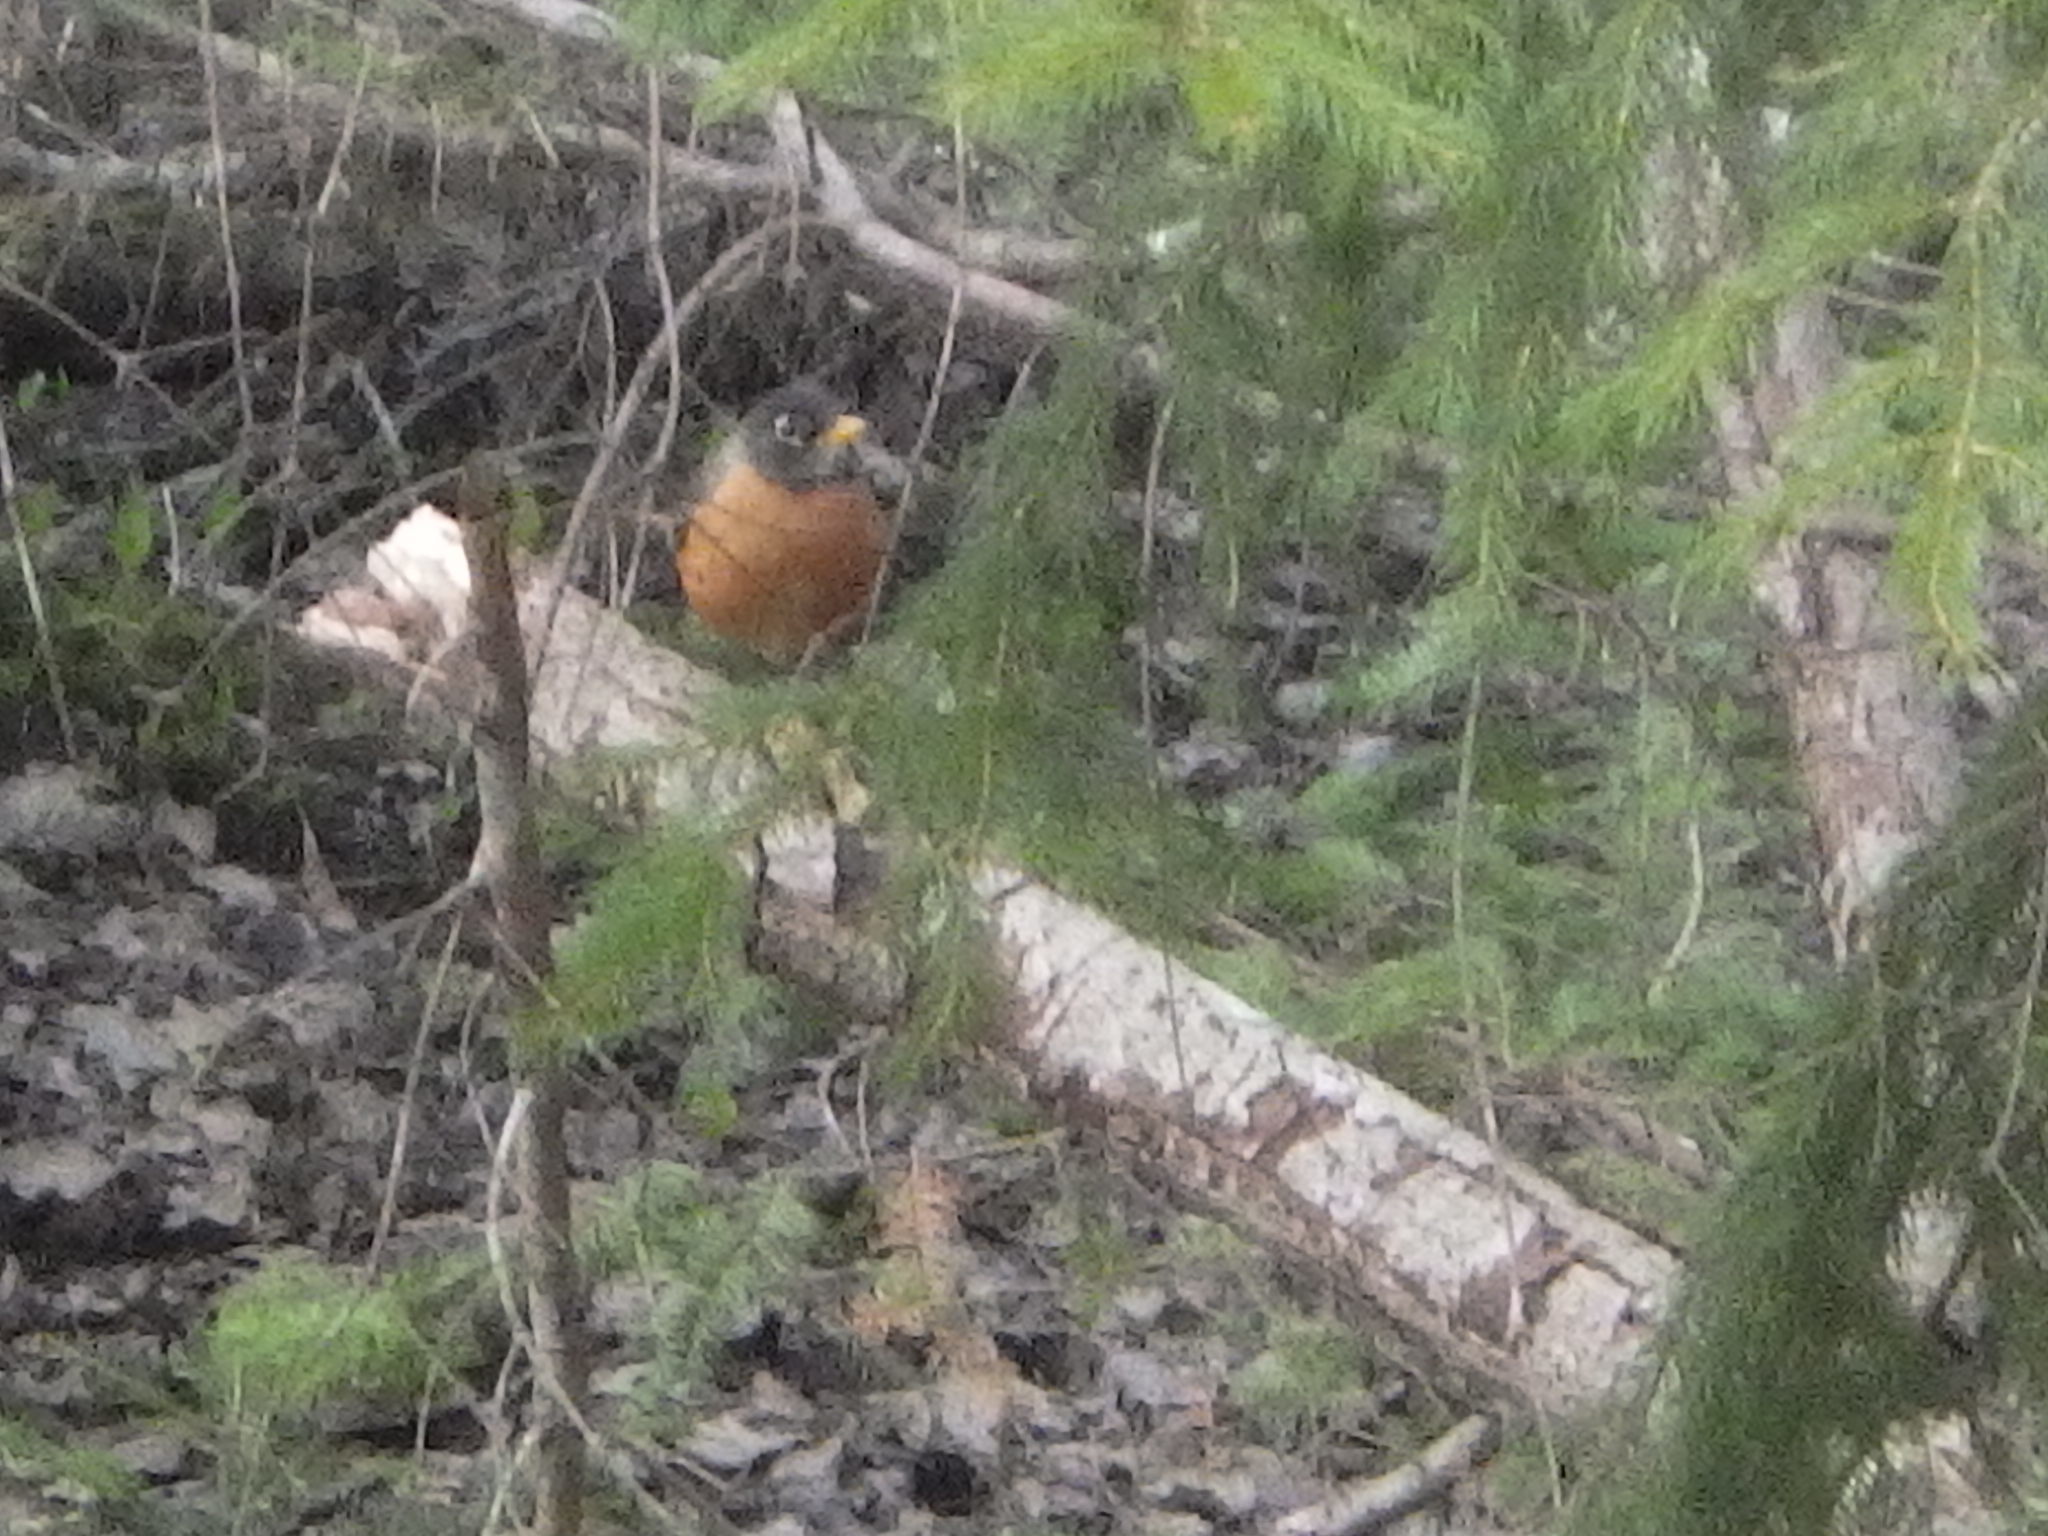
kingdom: Animalia
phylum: Chordata
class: Aves
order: Passeriformes
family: Turdidae
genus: Turdus
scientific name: Turdus migratorius
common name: American robin
